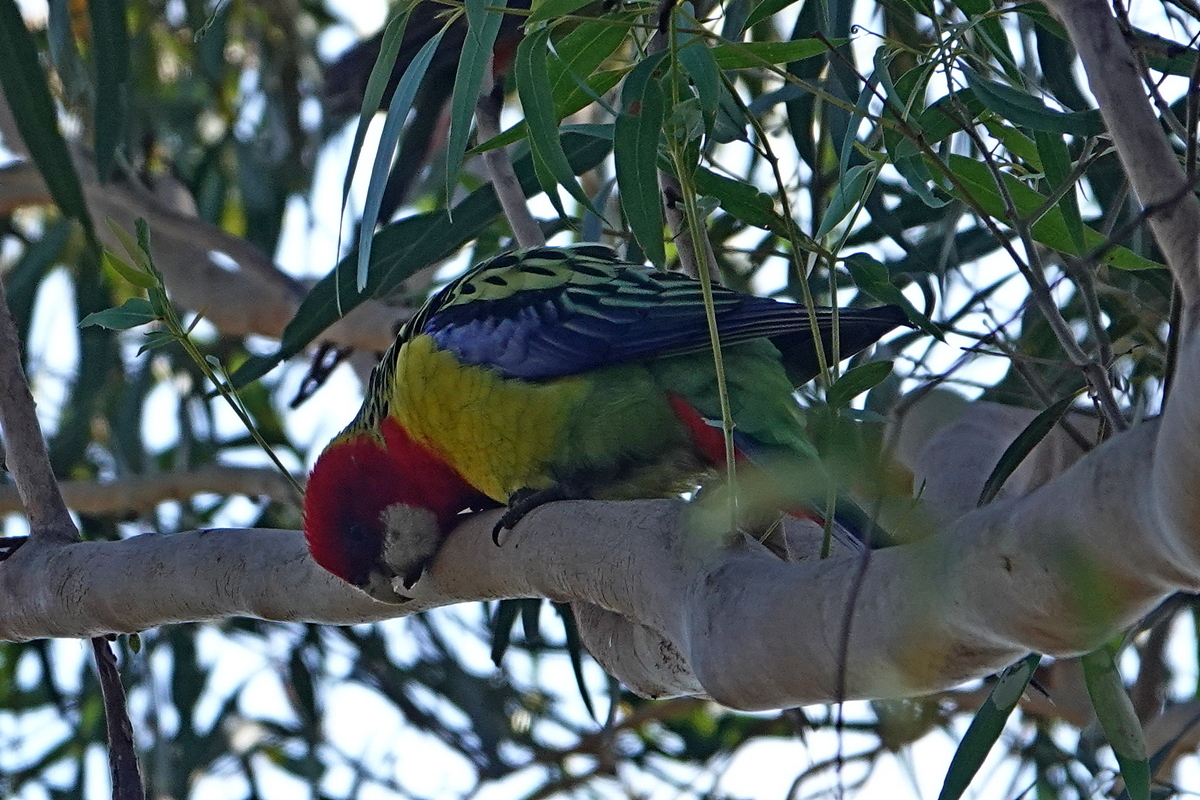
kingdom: Animalia
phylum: Chordata
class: Aves
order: Psittaciformes
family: Psittacidae
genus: Platycercus
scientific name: Platycercus eximius
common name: Eastern rosella
